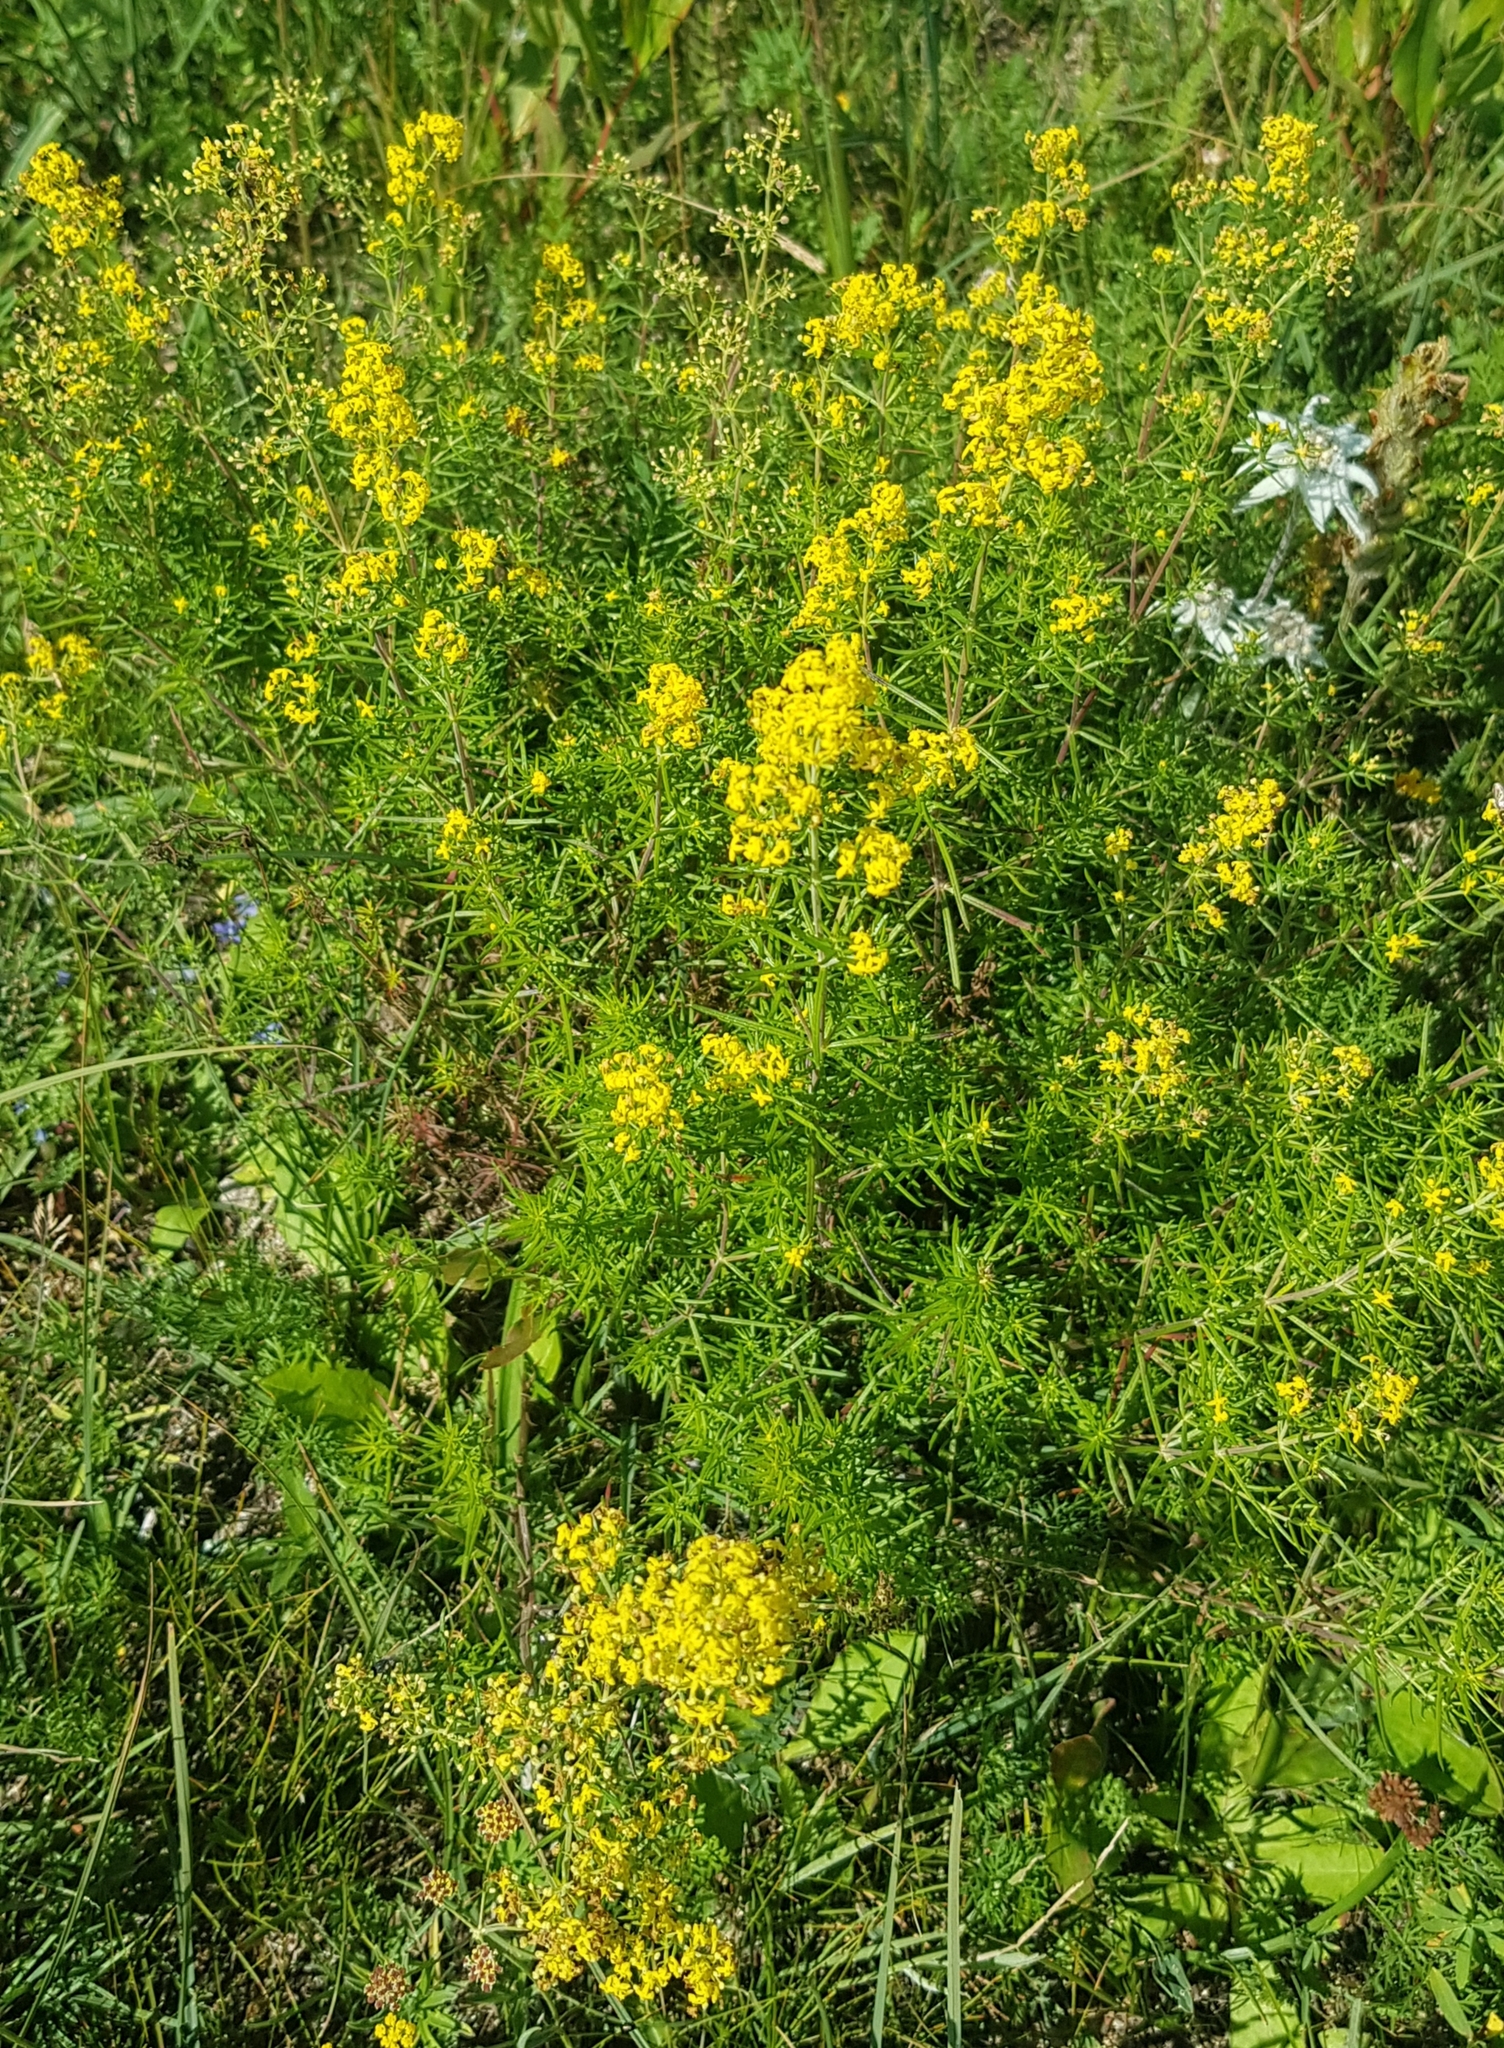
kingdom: Plantae
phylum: Tracheophyta
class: Magnoliopsida
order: Gentianales
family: Rubiaceae
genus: Galium
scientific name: Galium verum
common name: Lady's bedstraw
